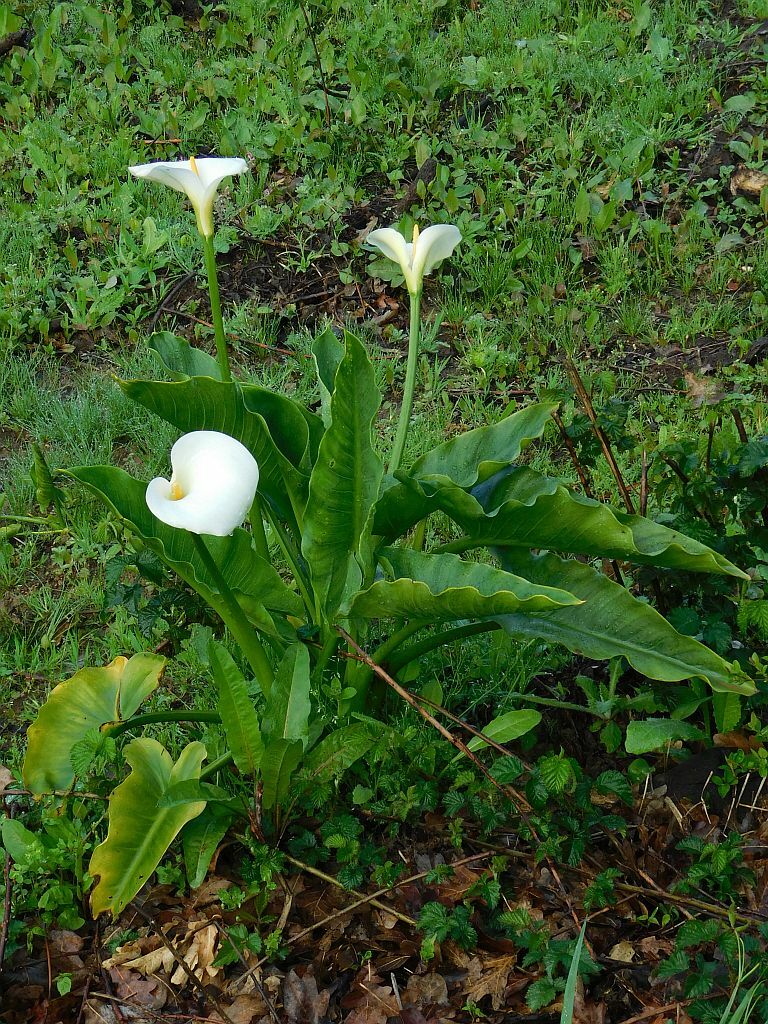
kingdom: Plantae
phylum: Tracheophyta
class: Liliopsida
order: Alismatales
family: Araceae
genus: Zantedeschia
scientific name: Zantedeschia aethiopica
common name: Altar-lily
